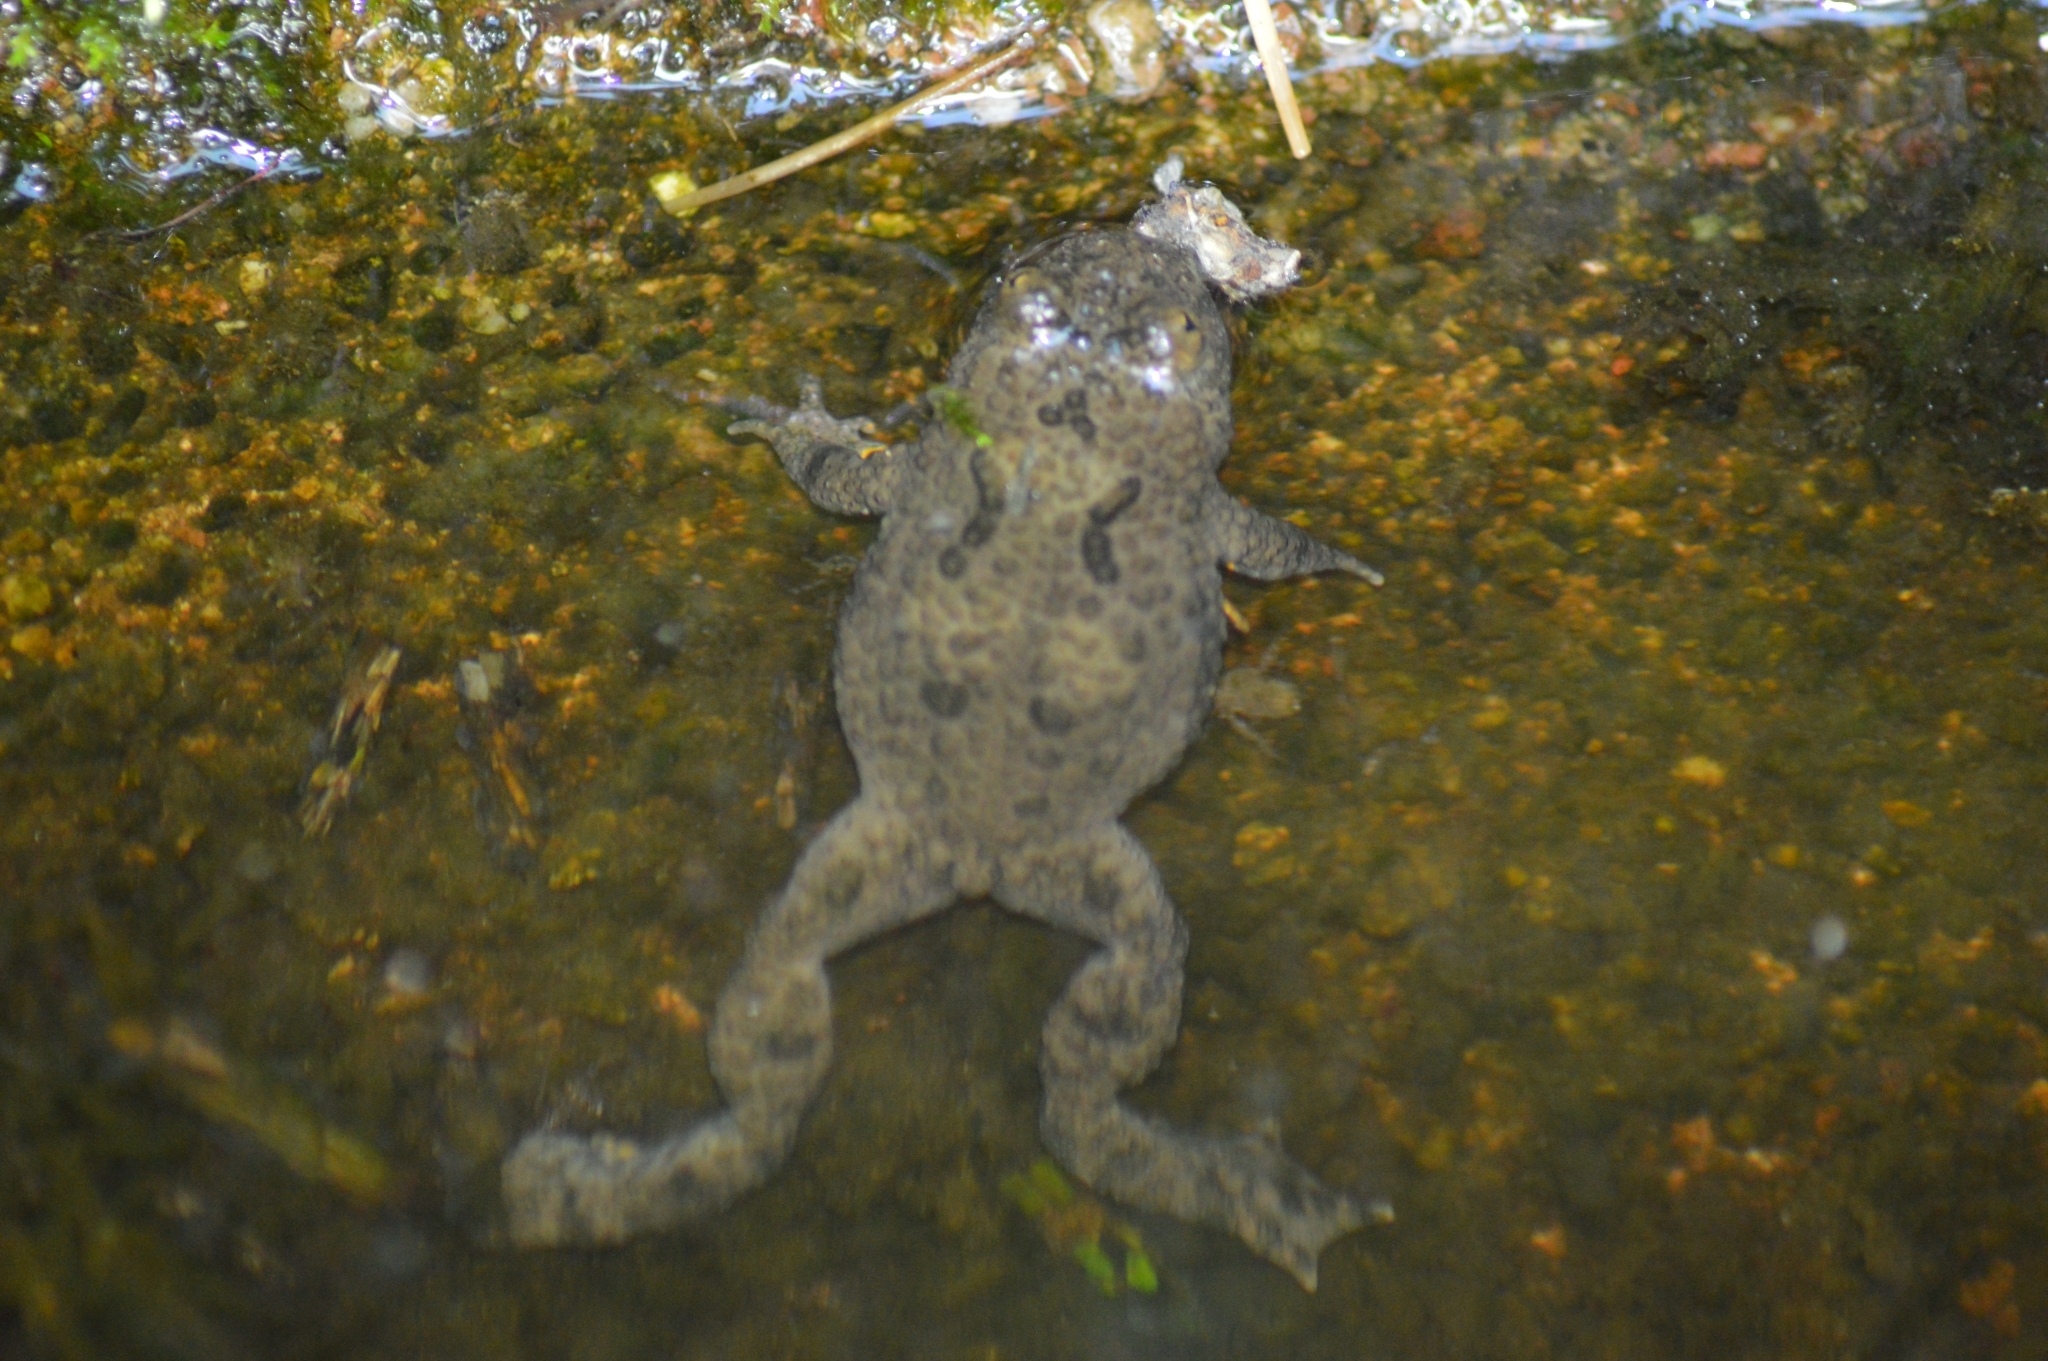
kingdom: Animalia
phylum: Chordata
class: Amphibia
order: Anura
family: Bombinatoridae
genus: Bombina
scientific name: Bombina variegata
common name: Yellow-bellied toad
